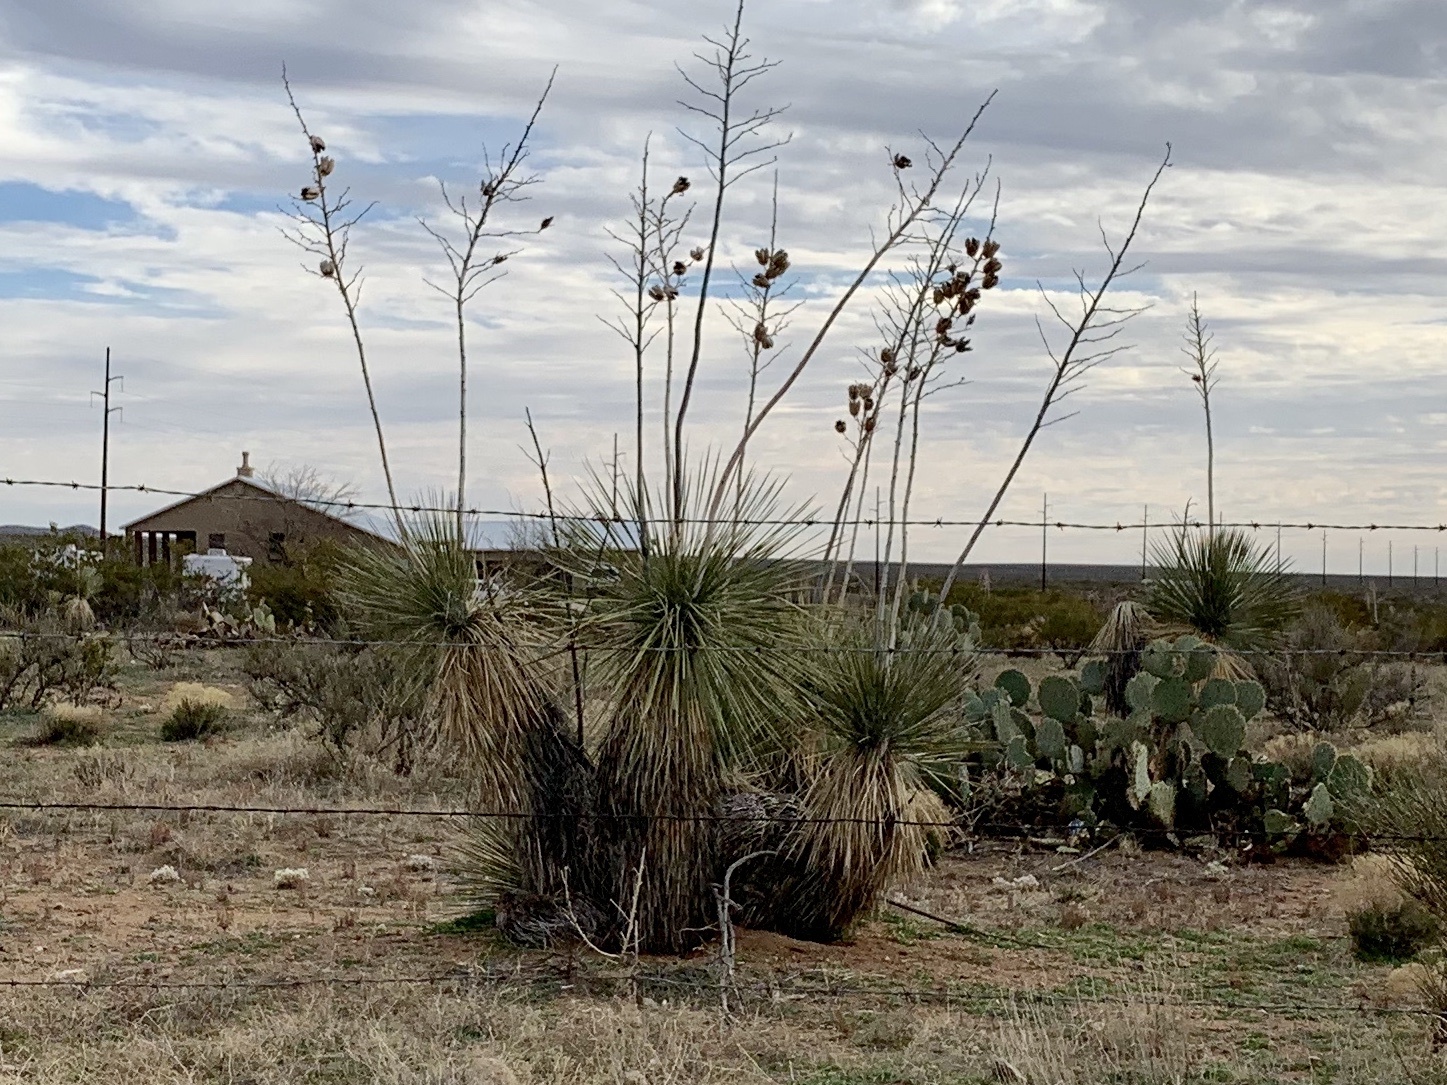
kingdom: Plantae
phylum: Tracheophyta
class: Liliopsida
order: Asparagales
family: Asparagaceae
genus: Yucca
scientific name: Yucca elata
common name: Palmella
